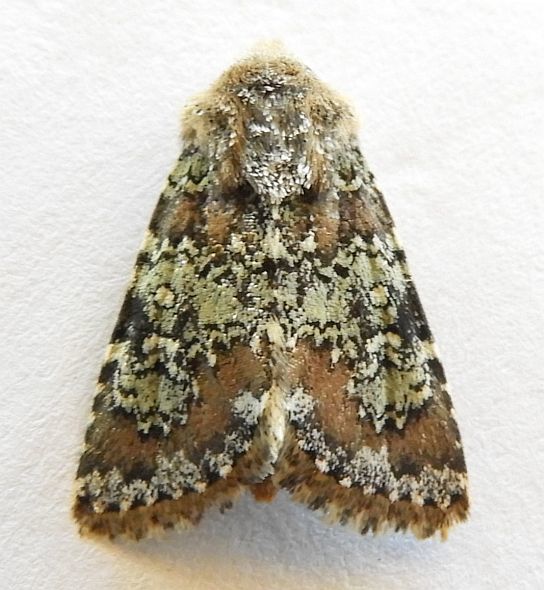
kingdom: Animalia
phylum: Arthropoda
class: Insecta
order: Lepidoptera
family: Noctuidae
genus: Hemibryomima
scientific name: Hemibryomima chryselectra
